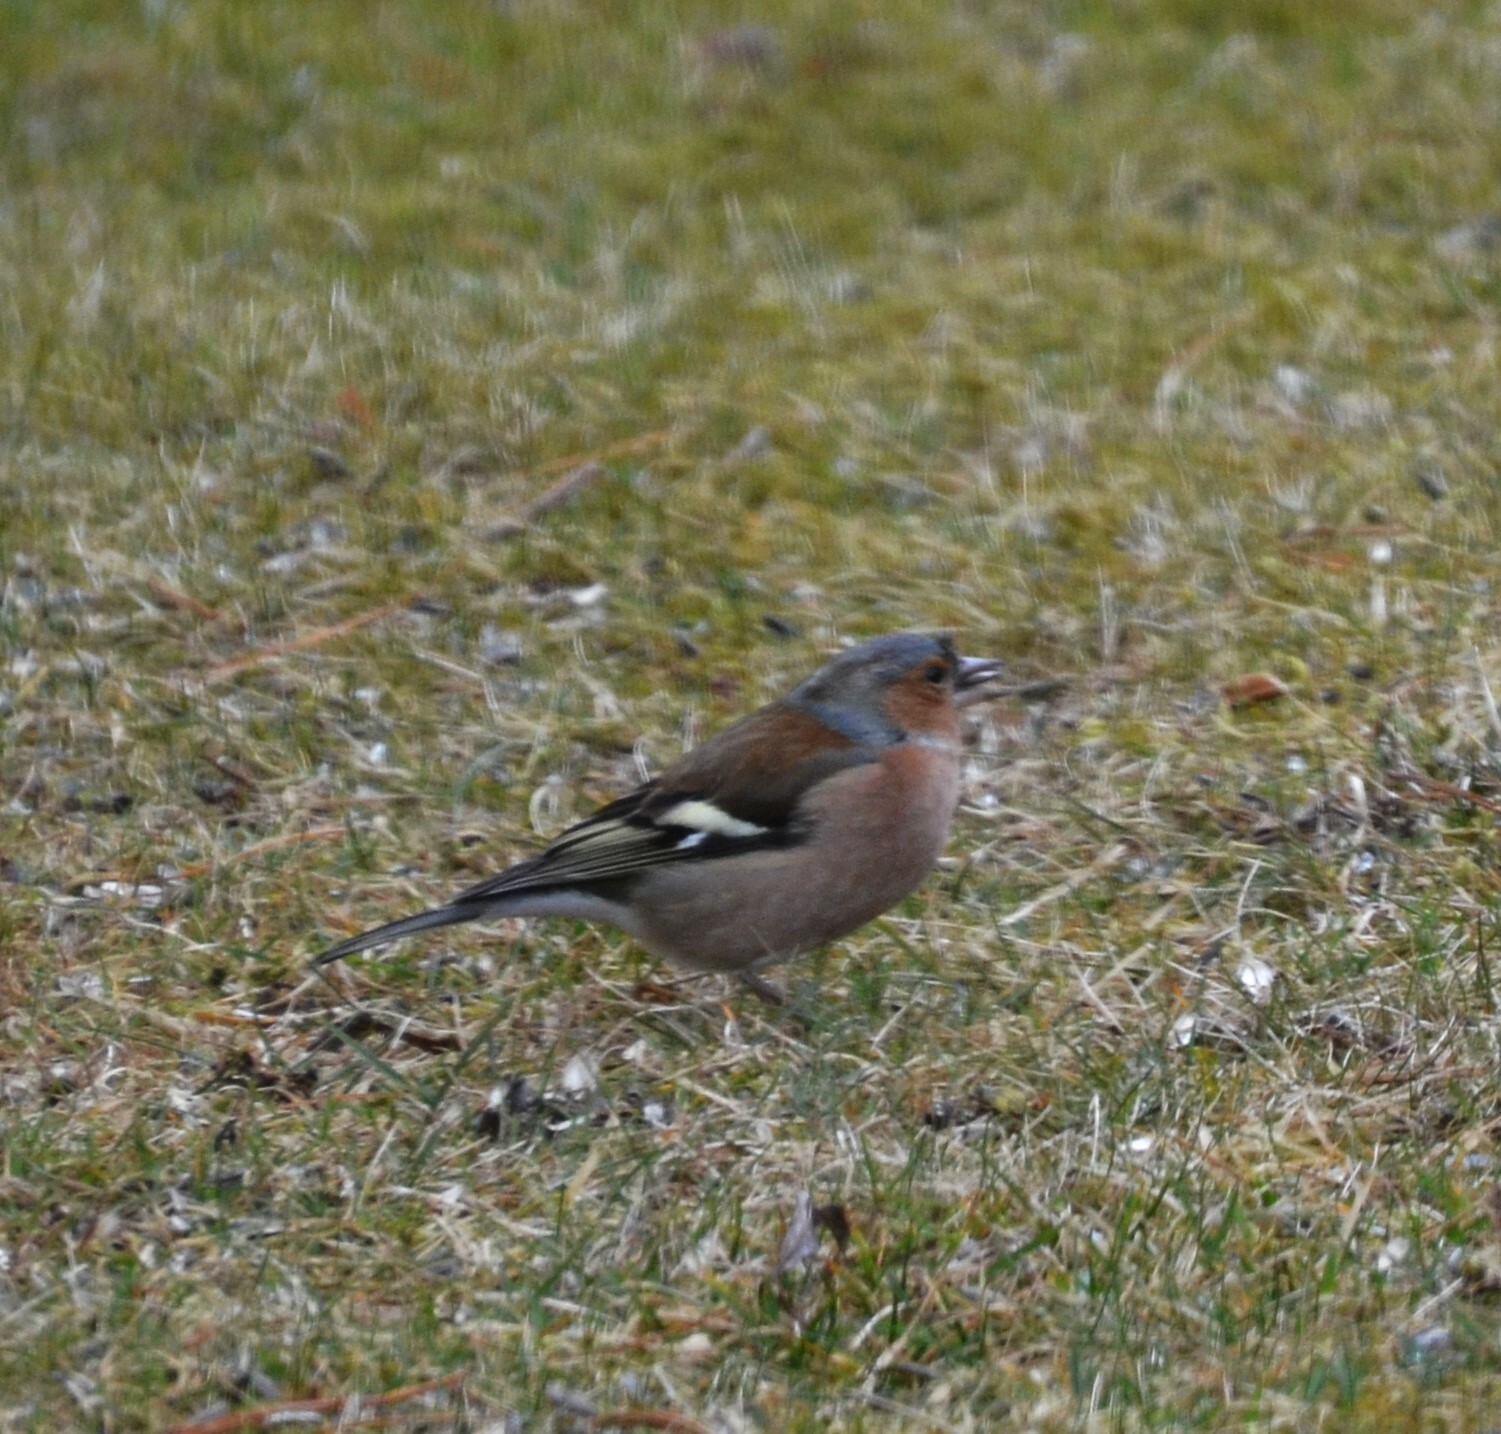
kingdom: Animalia
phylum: Chordata
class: Aves
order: Passeriformes
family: Fringillidae
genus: Fringilla
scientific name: Fringilla coelebs
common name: Common chaffinch
